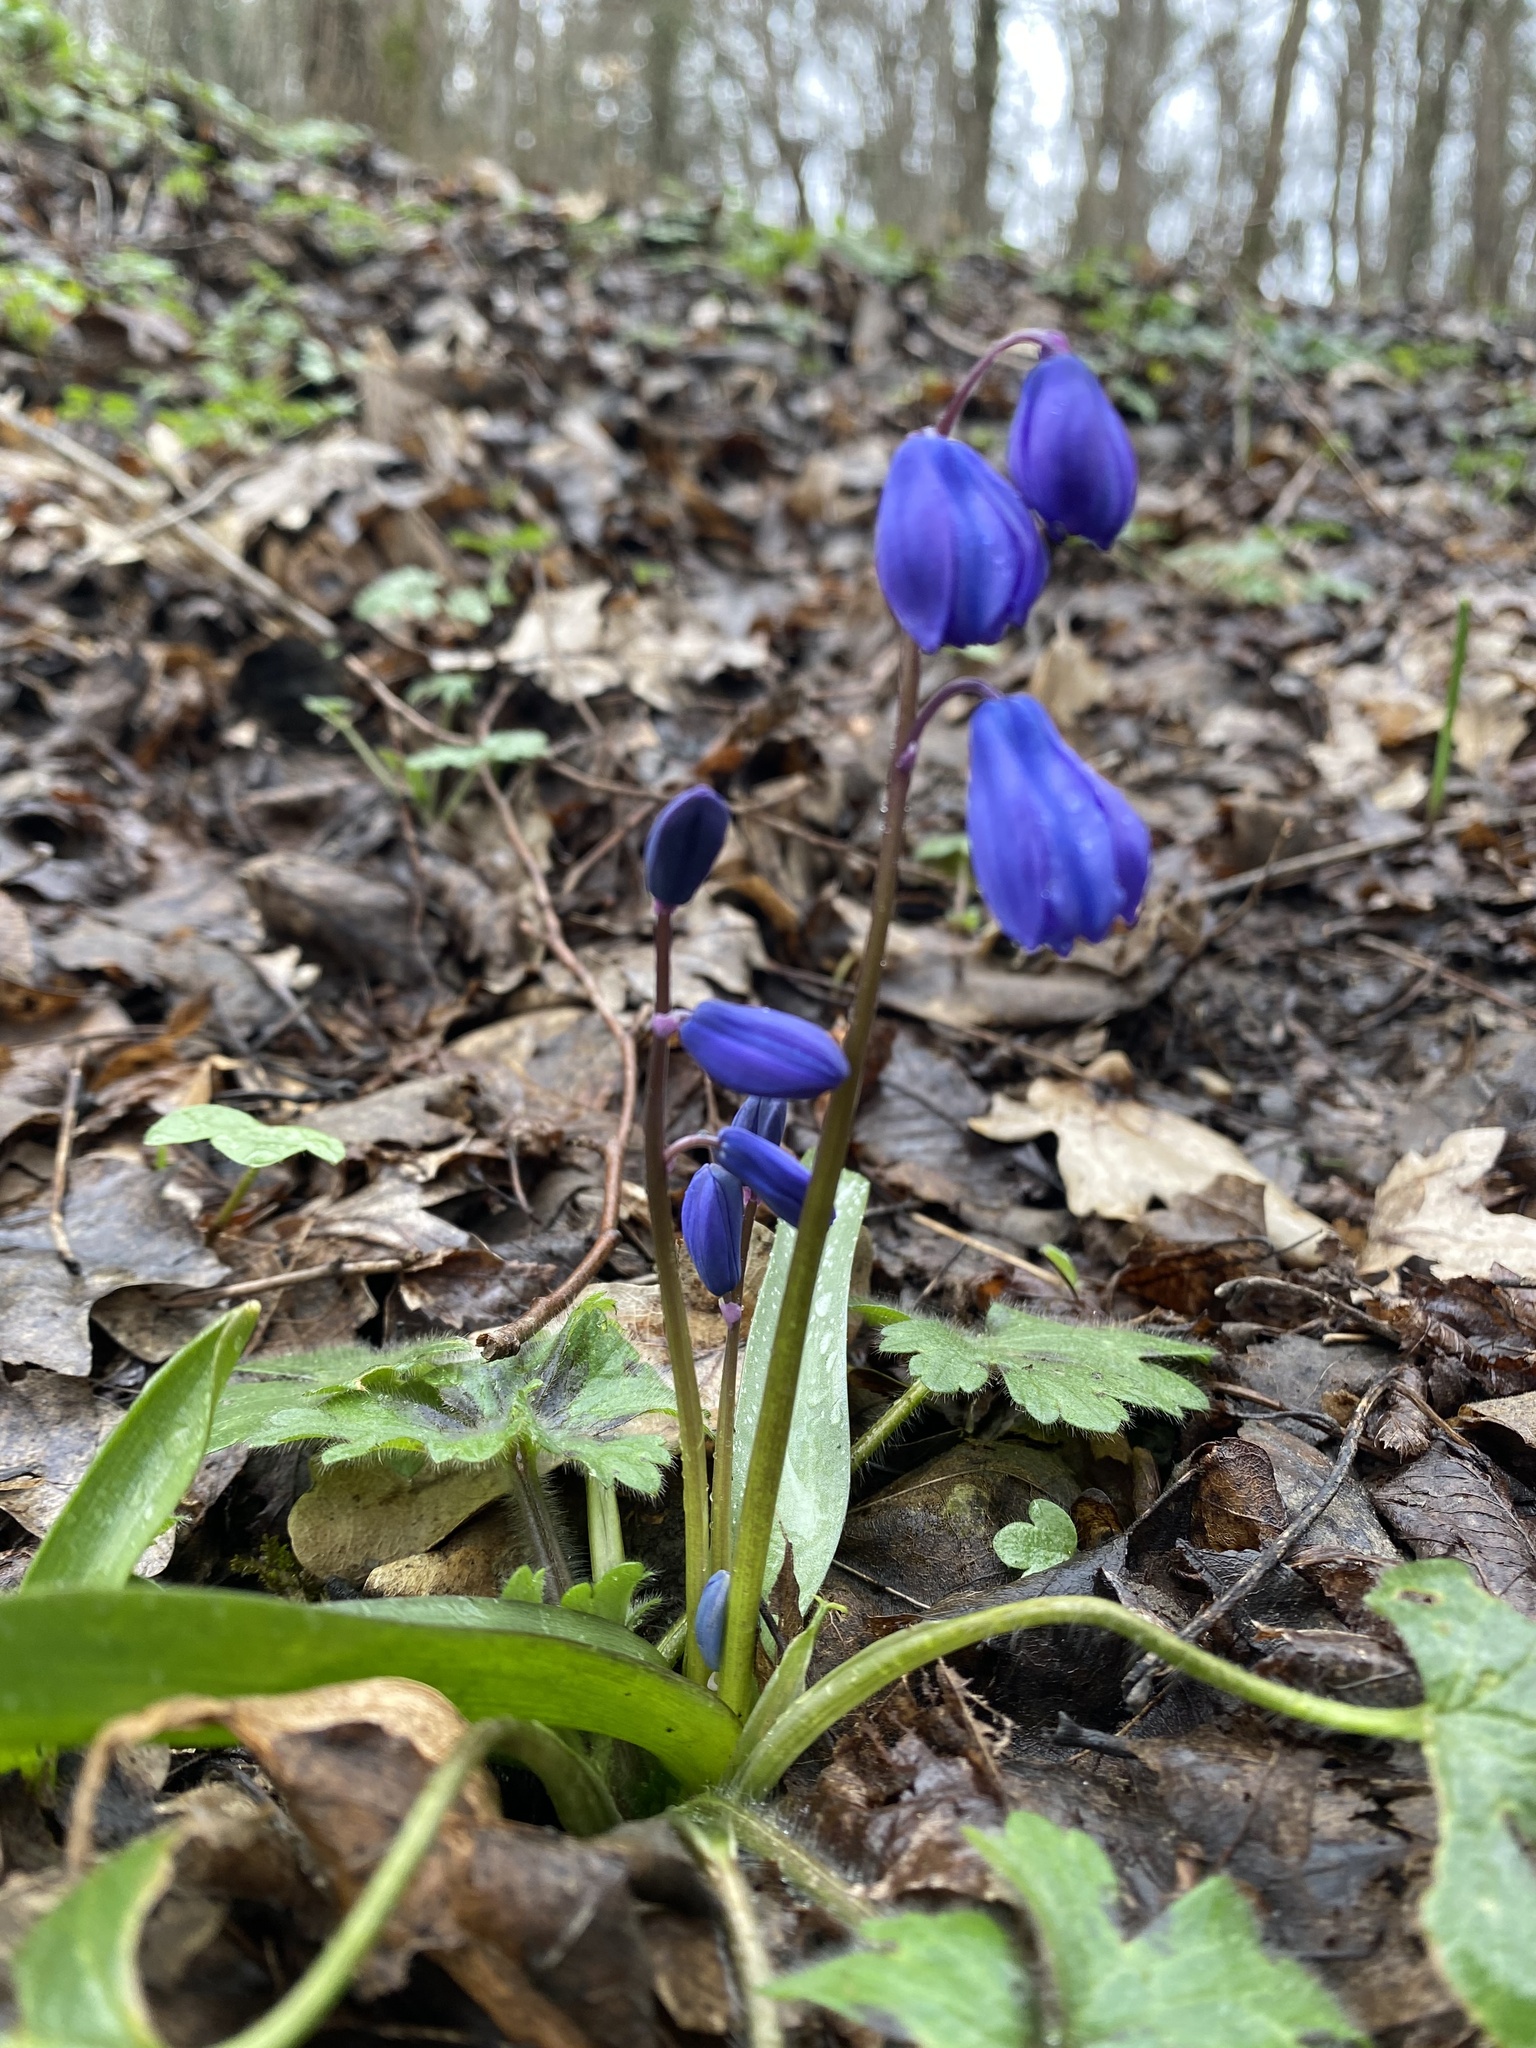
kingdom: Plantae
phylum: Tracheophyta
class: Liliopsida
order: Asparagales
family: Asparagaceae
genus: Scilla
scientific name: Scilla siberica
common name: Siberian squill
